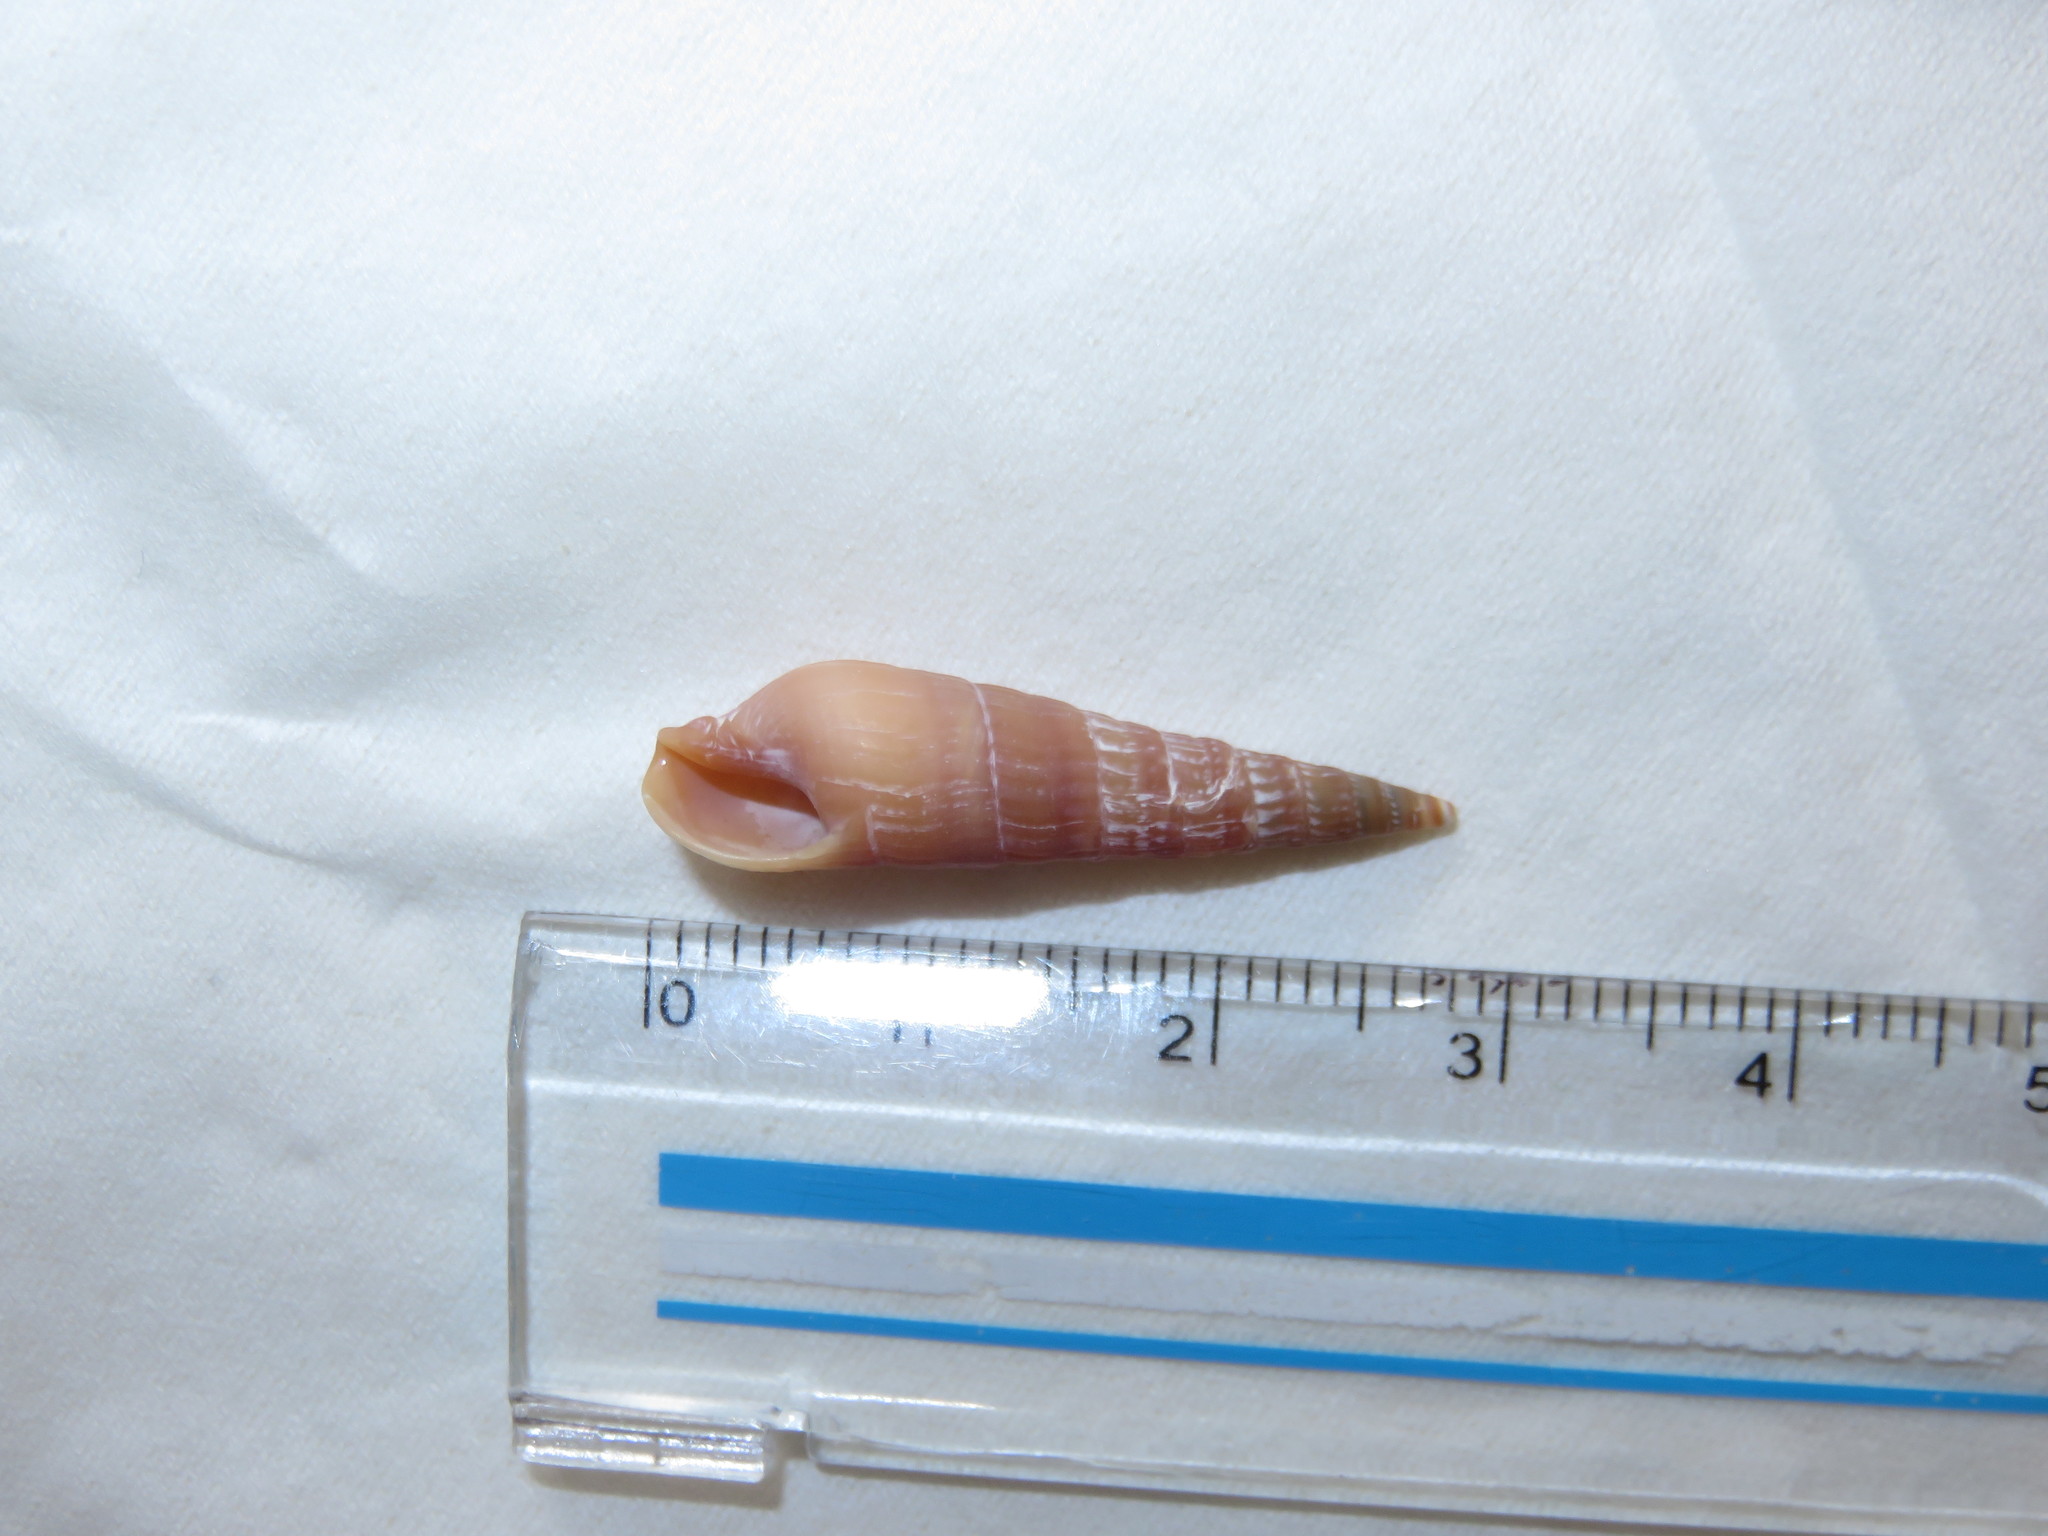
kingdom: Animalia
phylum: Mollusca
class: Gastropoda
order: Neogastropoda
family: Terebridae
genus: Pristiterebra
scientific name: Pristiterebra bifrons
